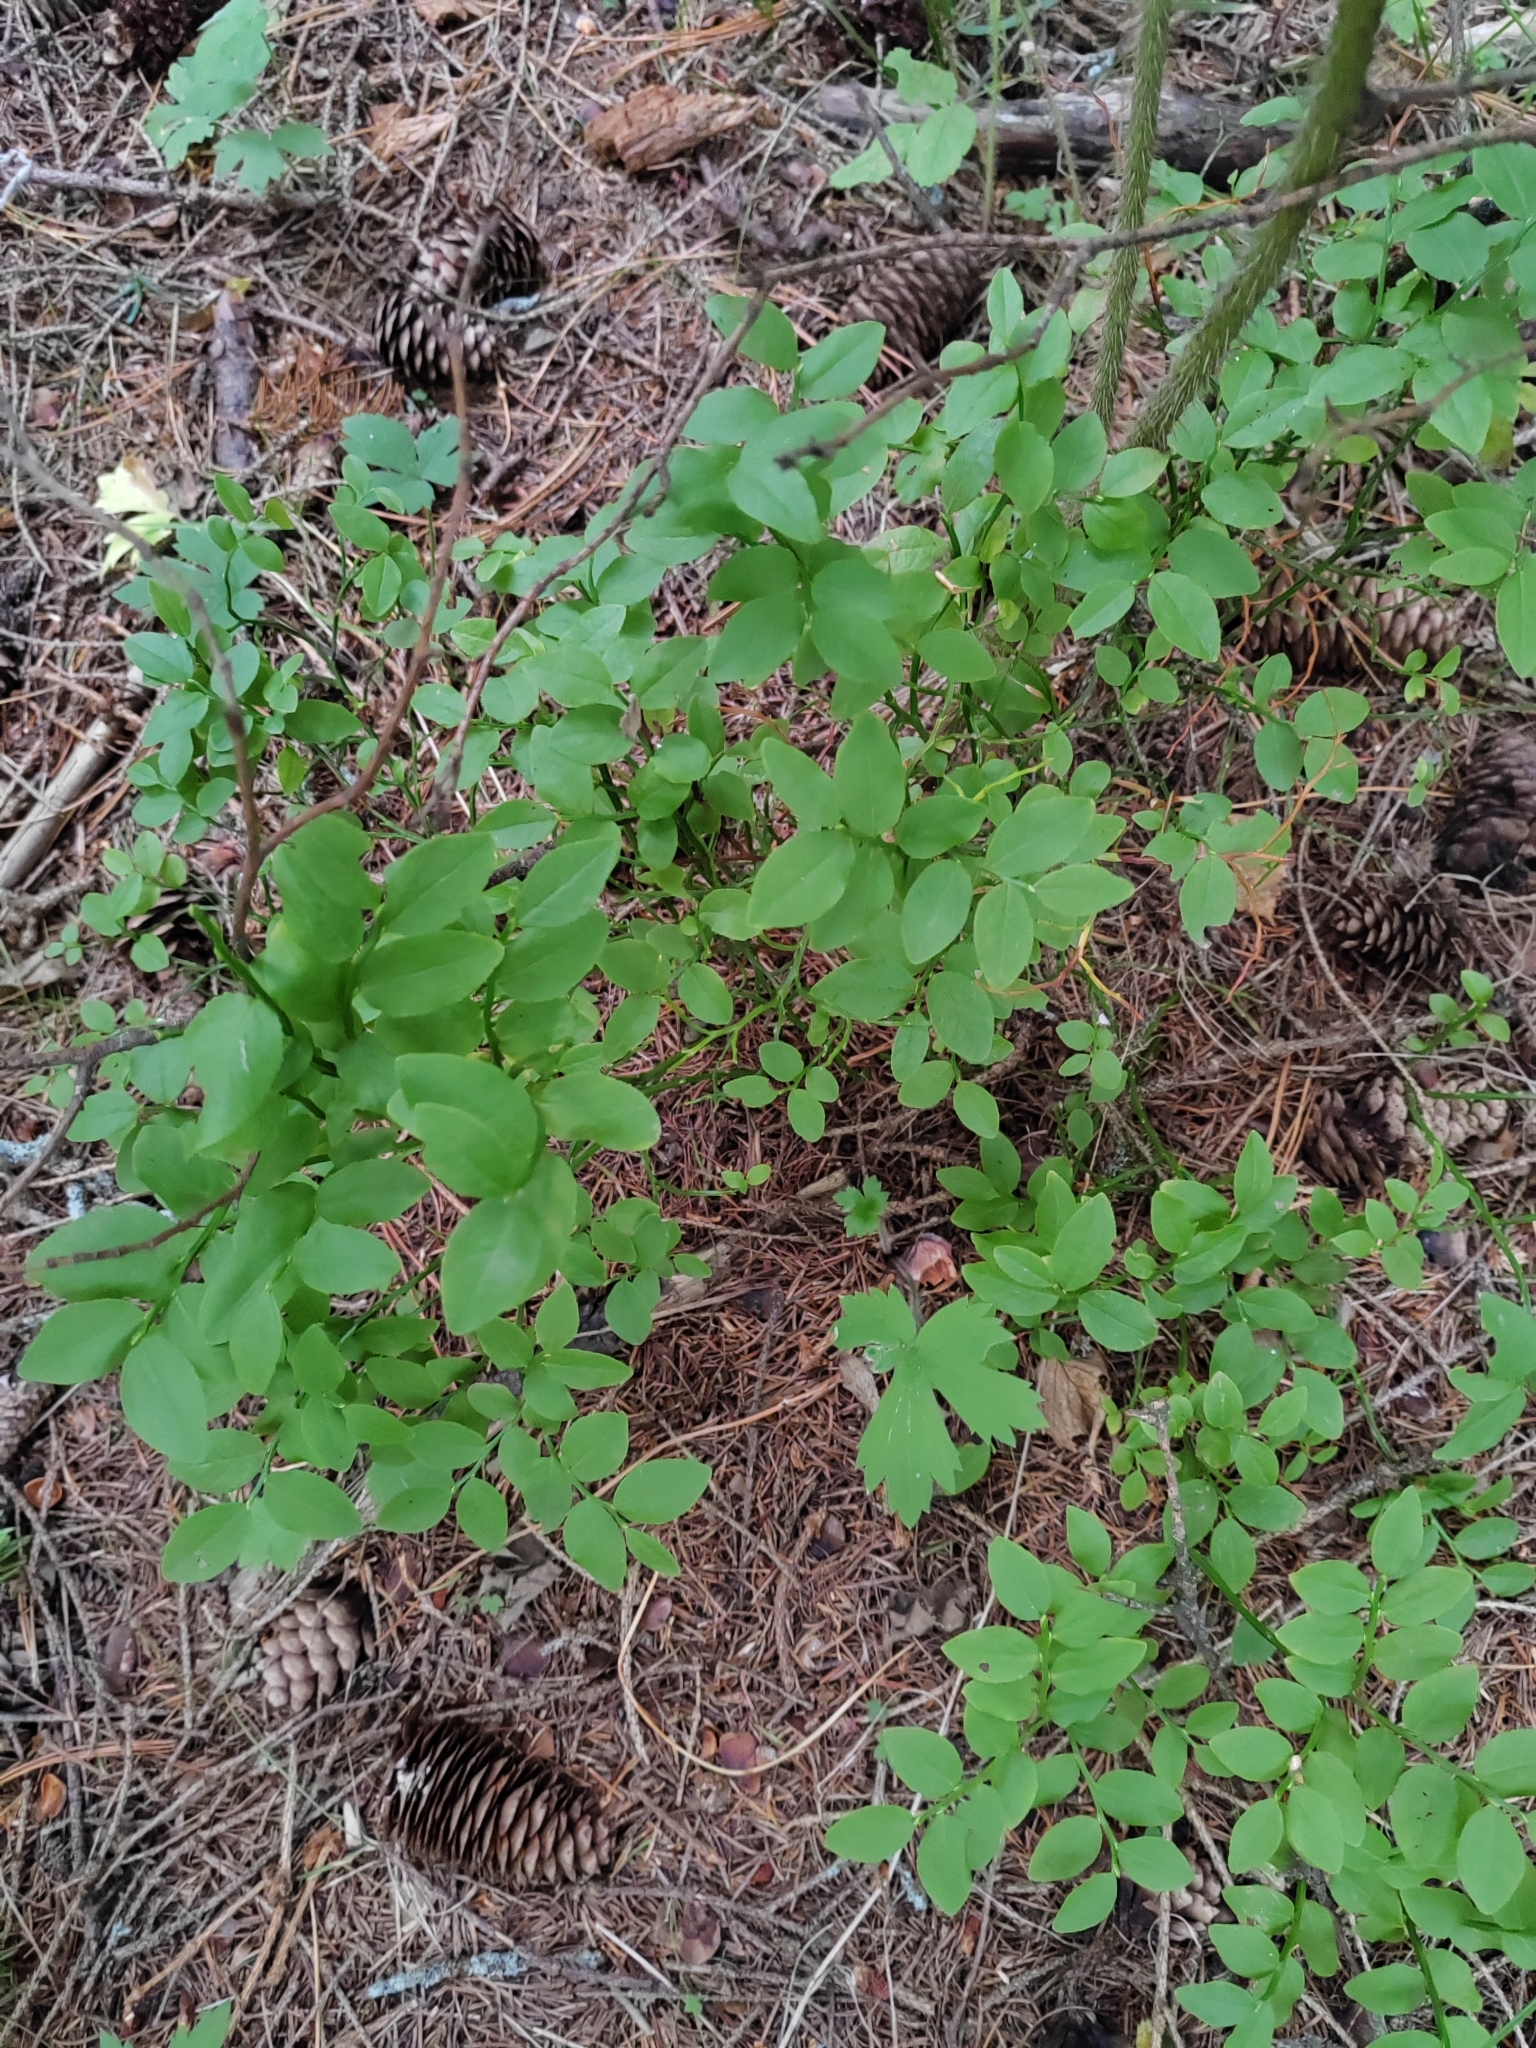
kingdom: Plantae
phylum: Tracheophyta
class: Magnoliopsida
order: Ericales
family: Ericaceae
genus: Vaccinium
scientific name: Vaccinium myrtillus
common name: Bilberry
